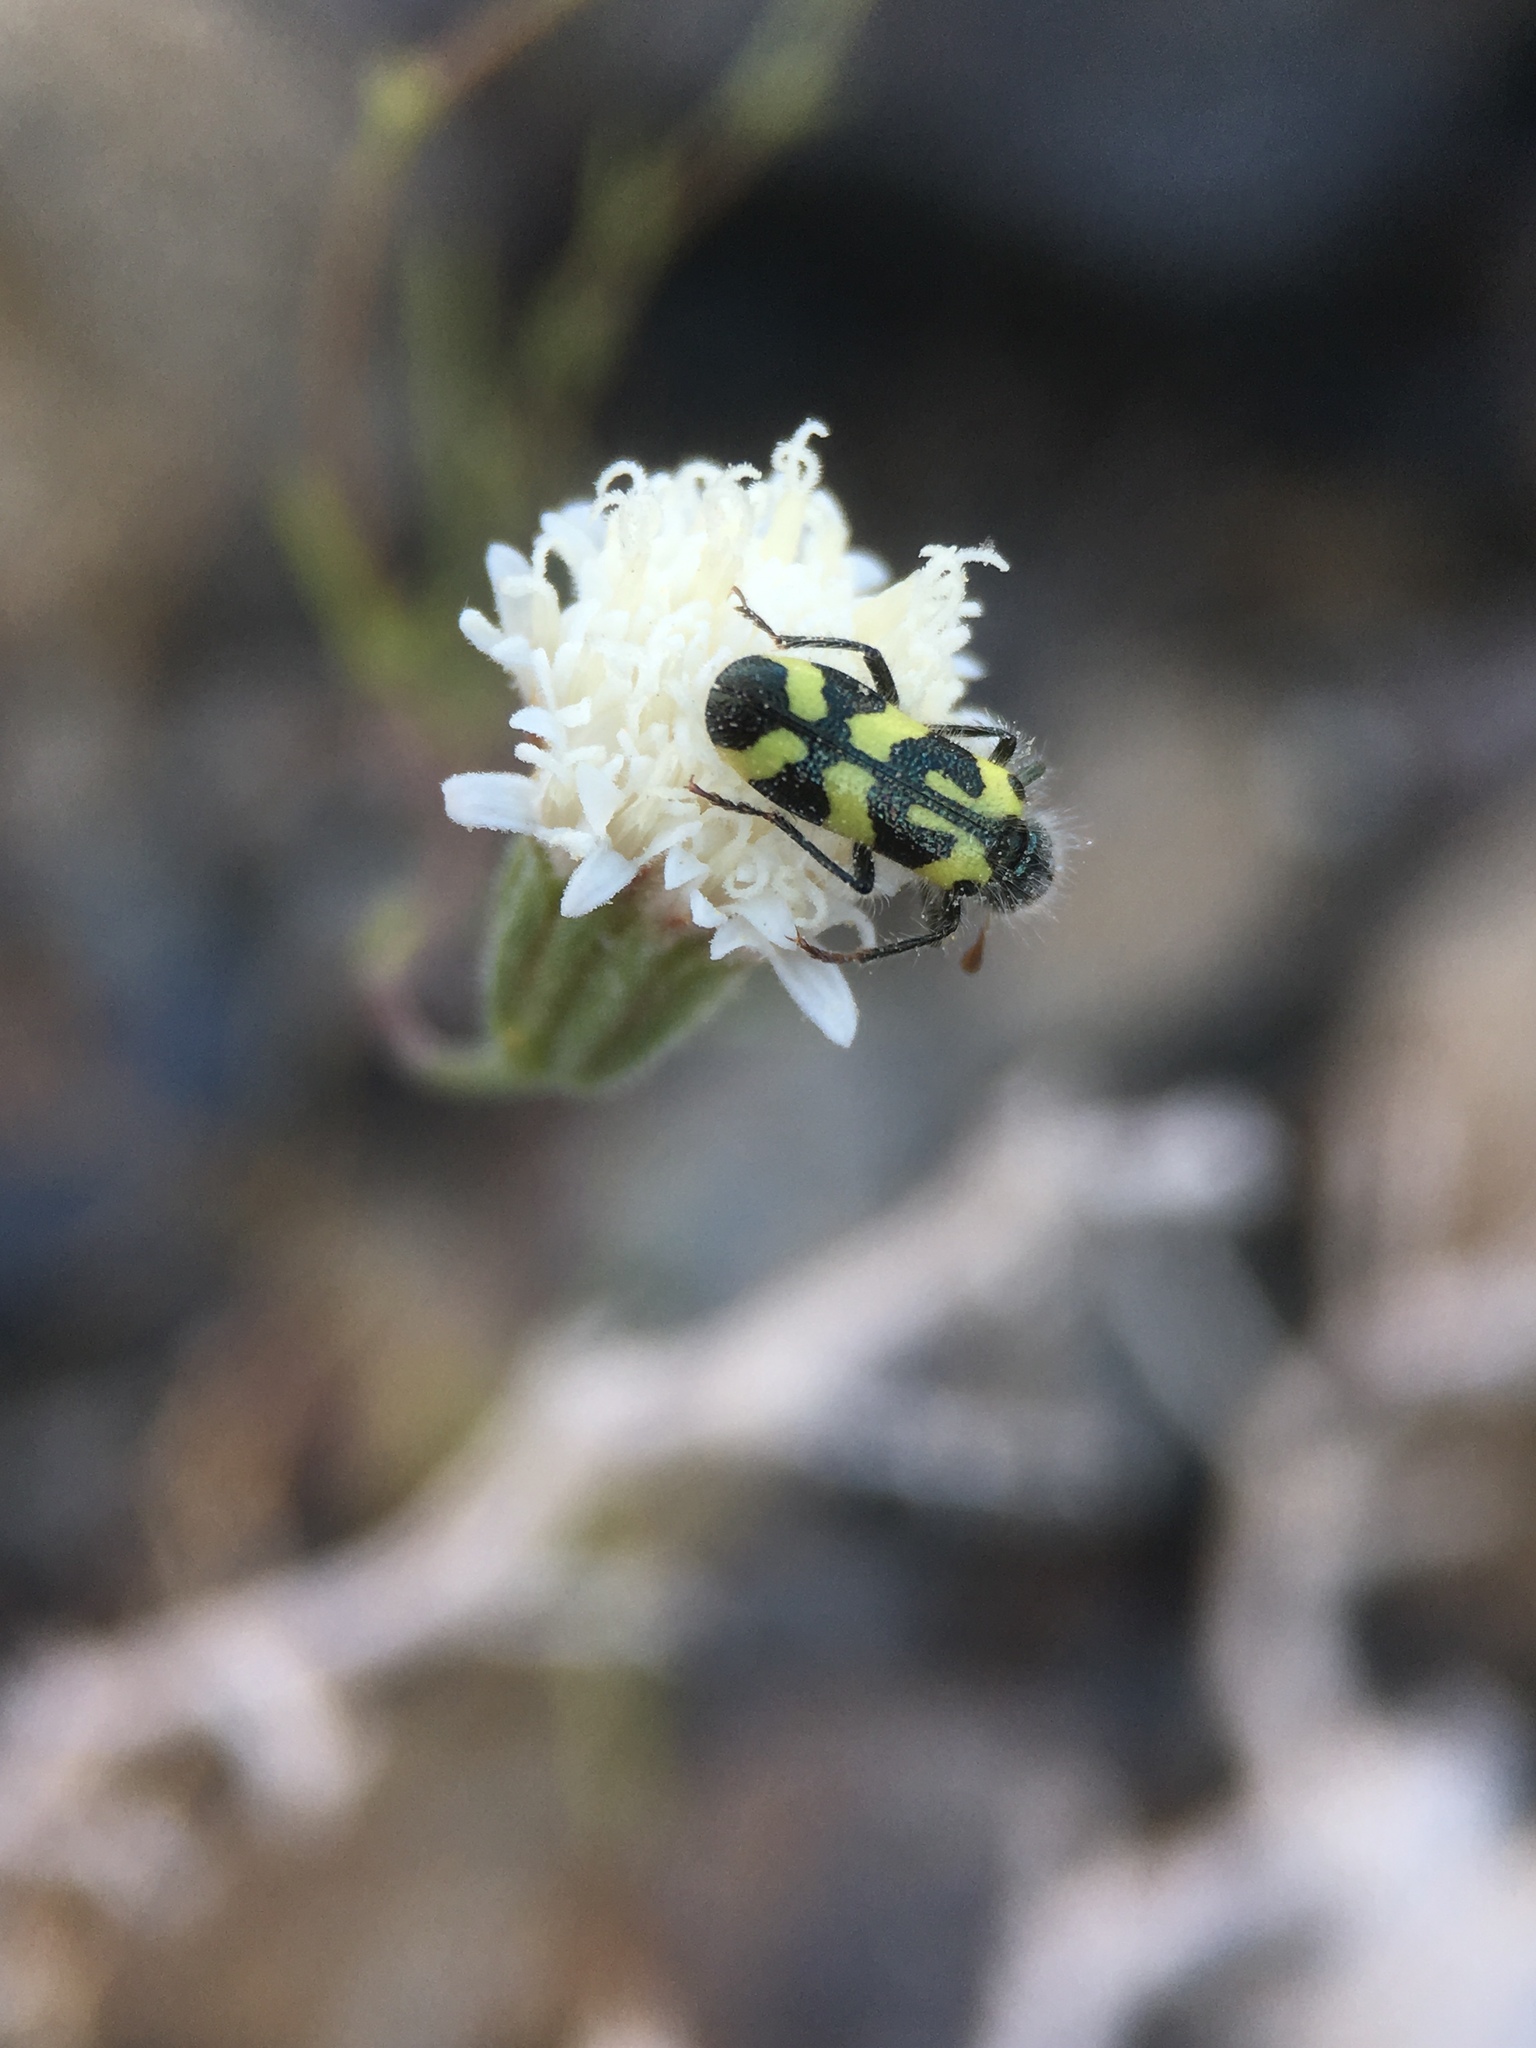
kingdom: Animalia
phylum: Arthropoda
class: Insecta
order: Coleoptera
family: Cleridae
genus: Trichodes
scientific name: Trichodes ornatus
